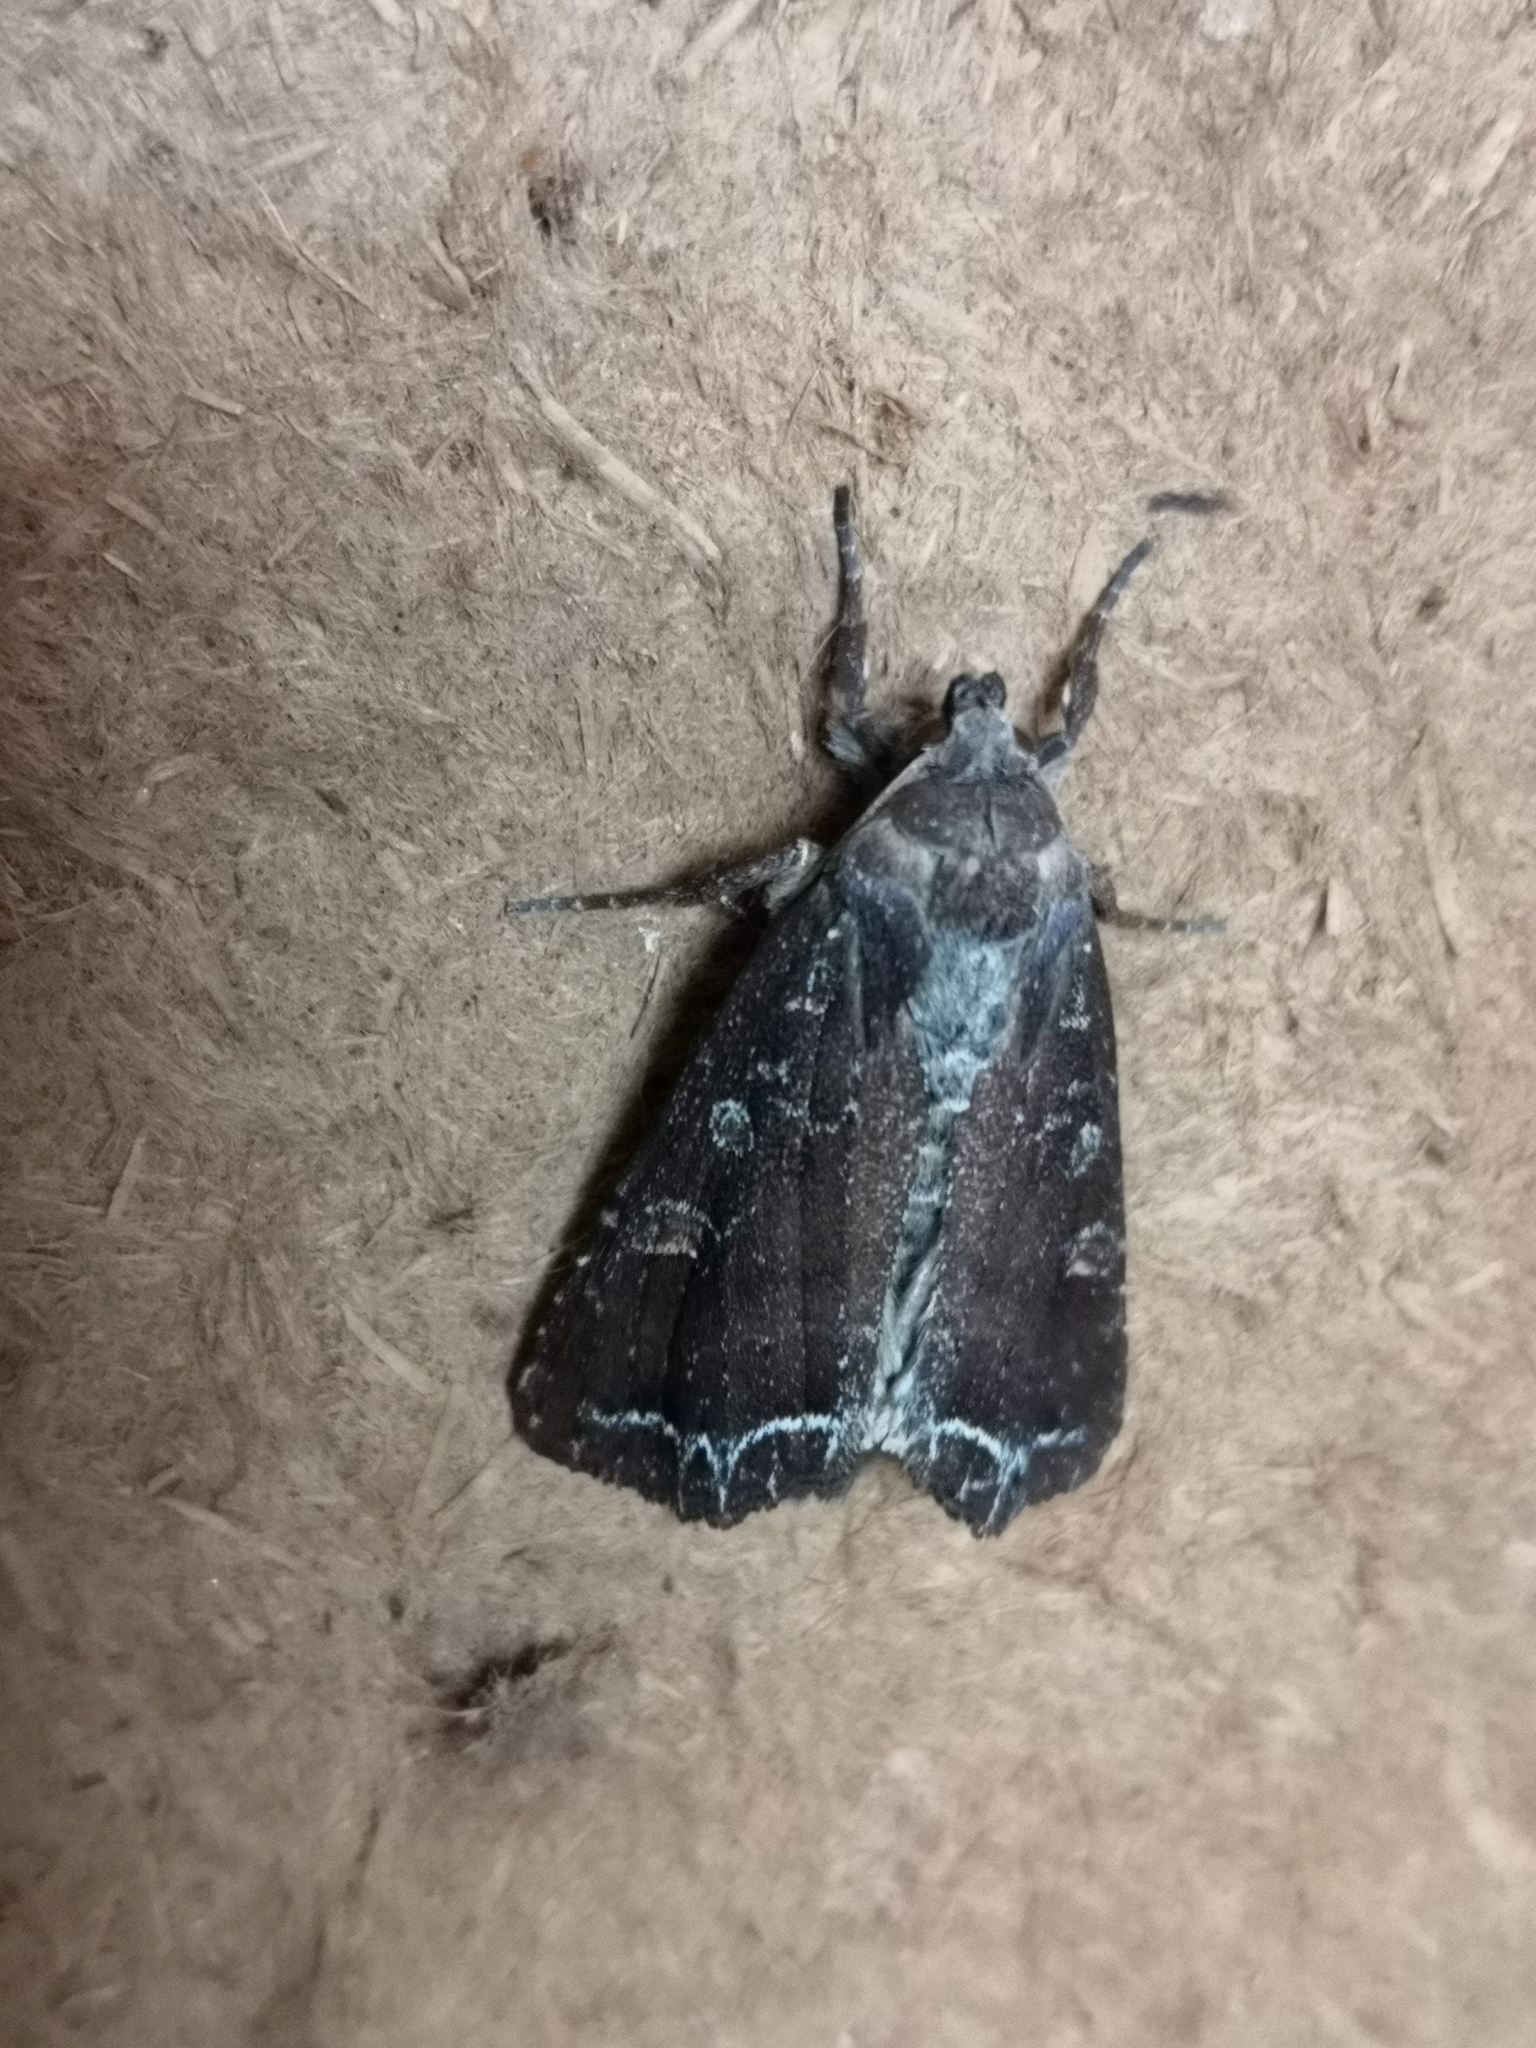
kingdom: Animalia
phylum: Arthropoda
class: Insecta
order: Lepidoptera
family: Noctuidae
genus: Lacanobia
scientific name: Lacanobia oleracea
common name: Bright-line brown-eye
